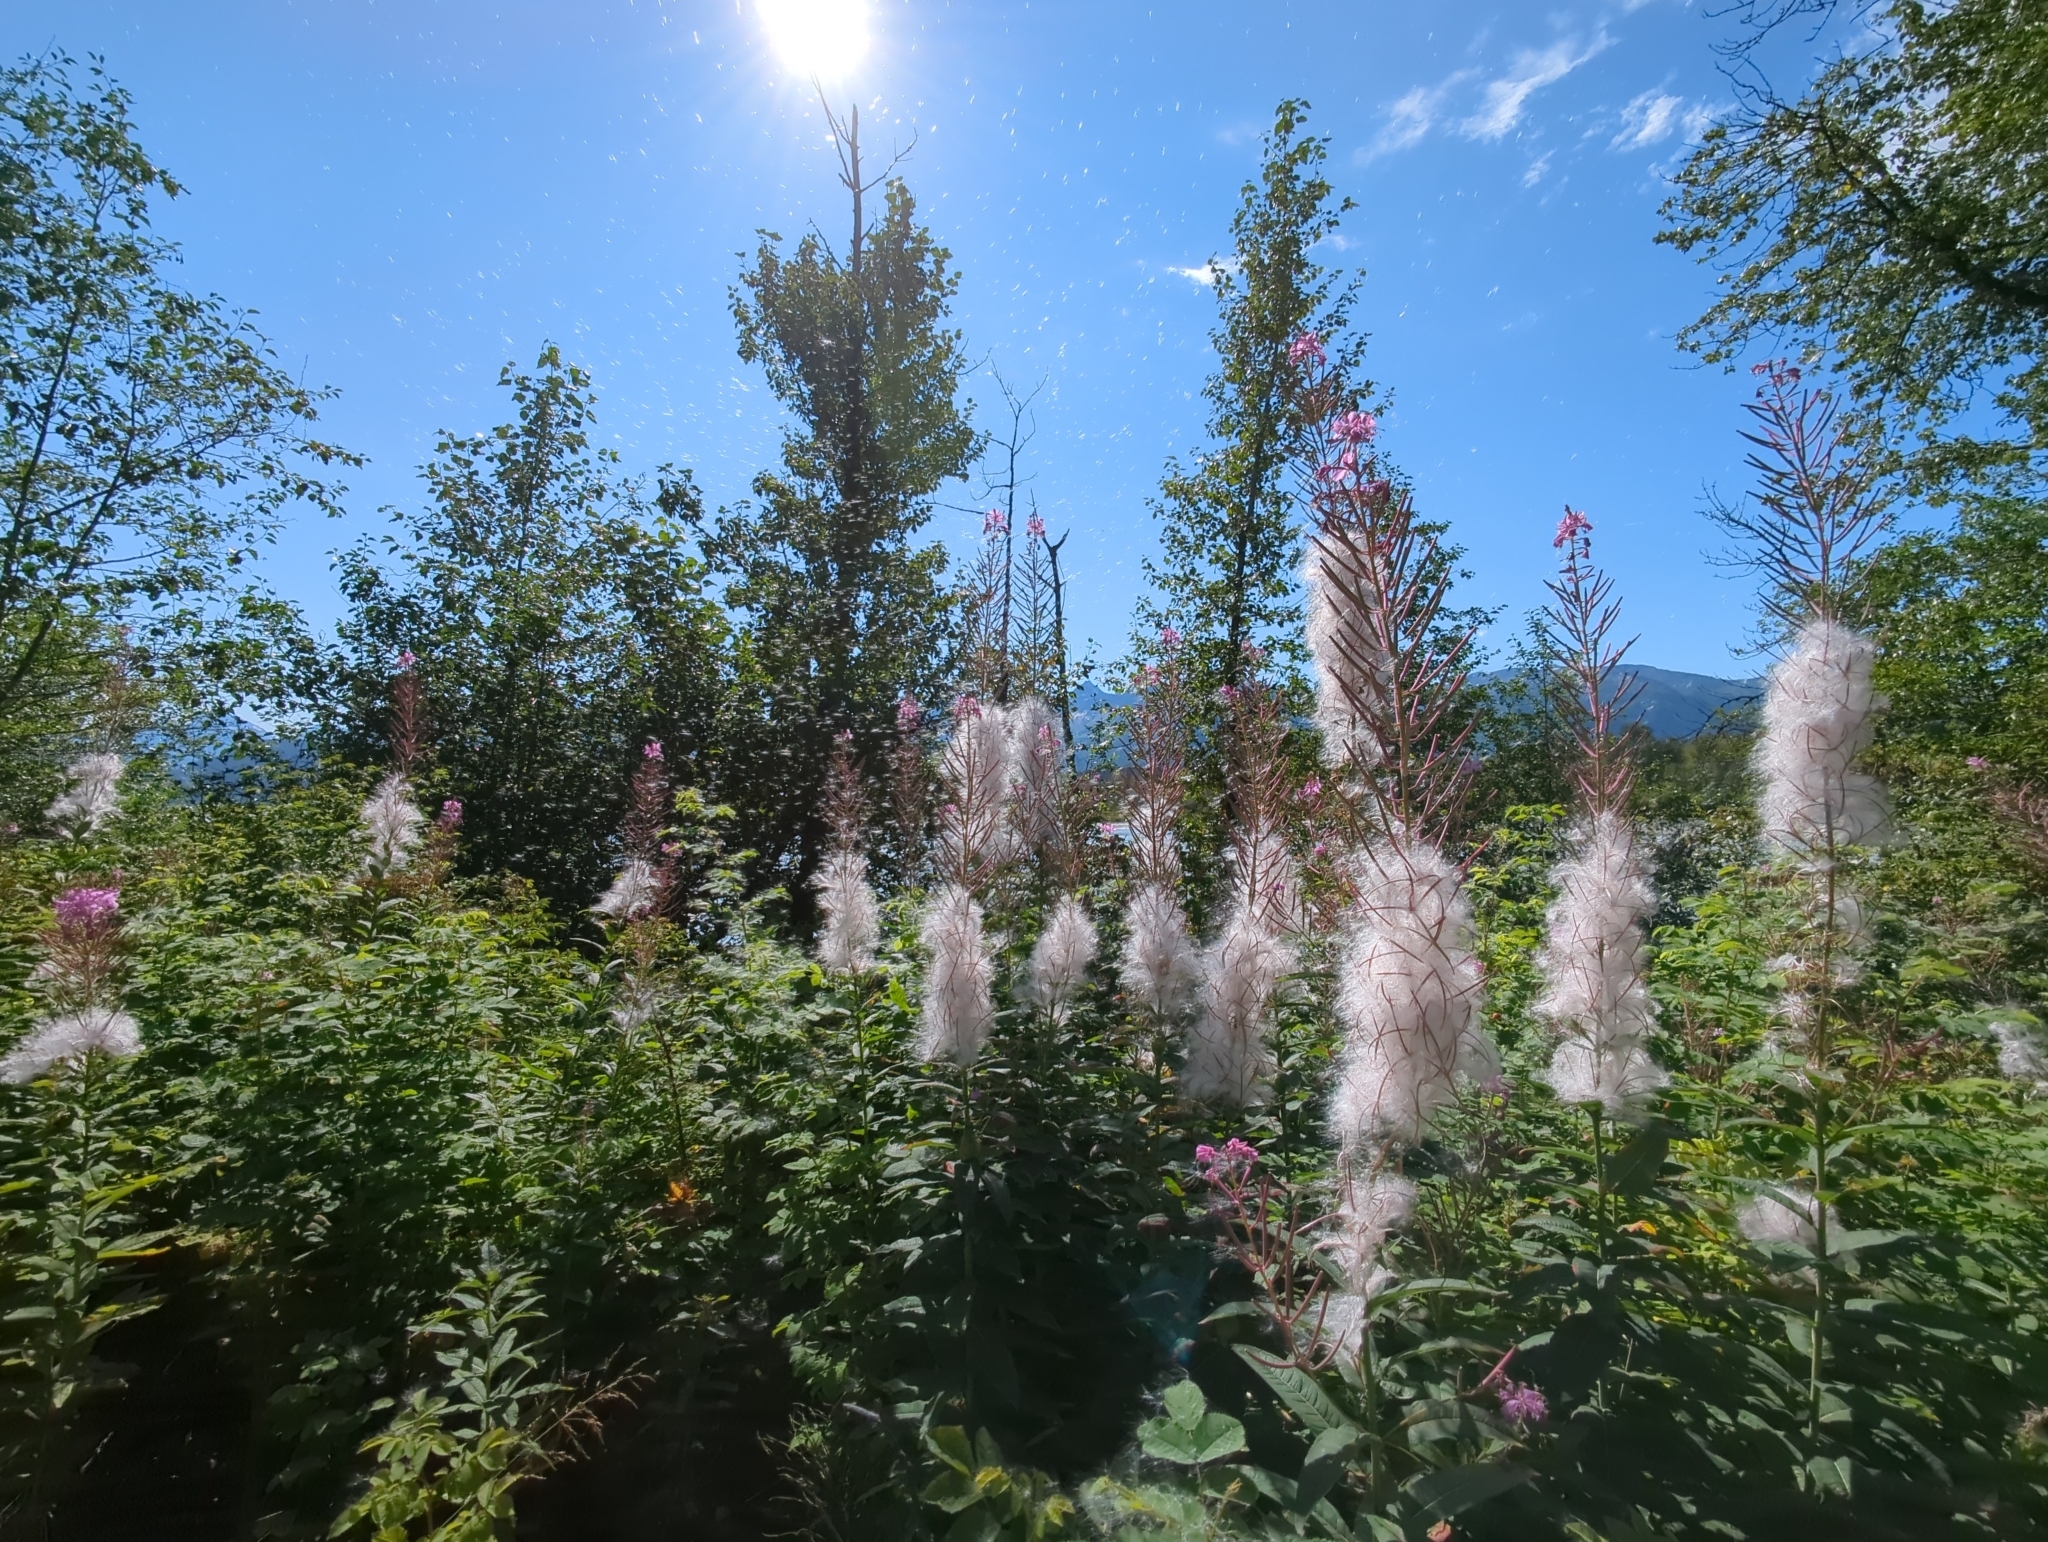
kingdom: Plantae
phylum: Tracheophyta
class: Magnoliopsida
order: Myrtales
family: Onagraceae
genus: Chamaenerion
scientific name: Chamaenerion angustifolium
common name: Fireweed
